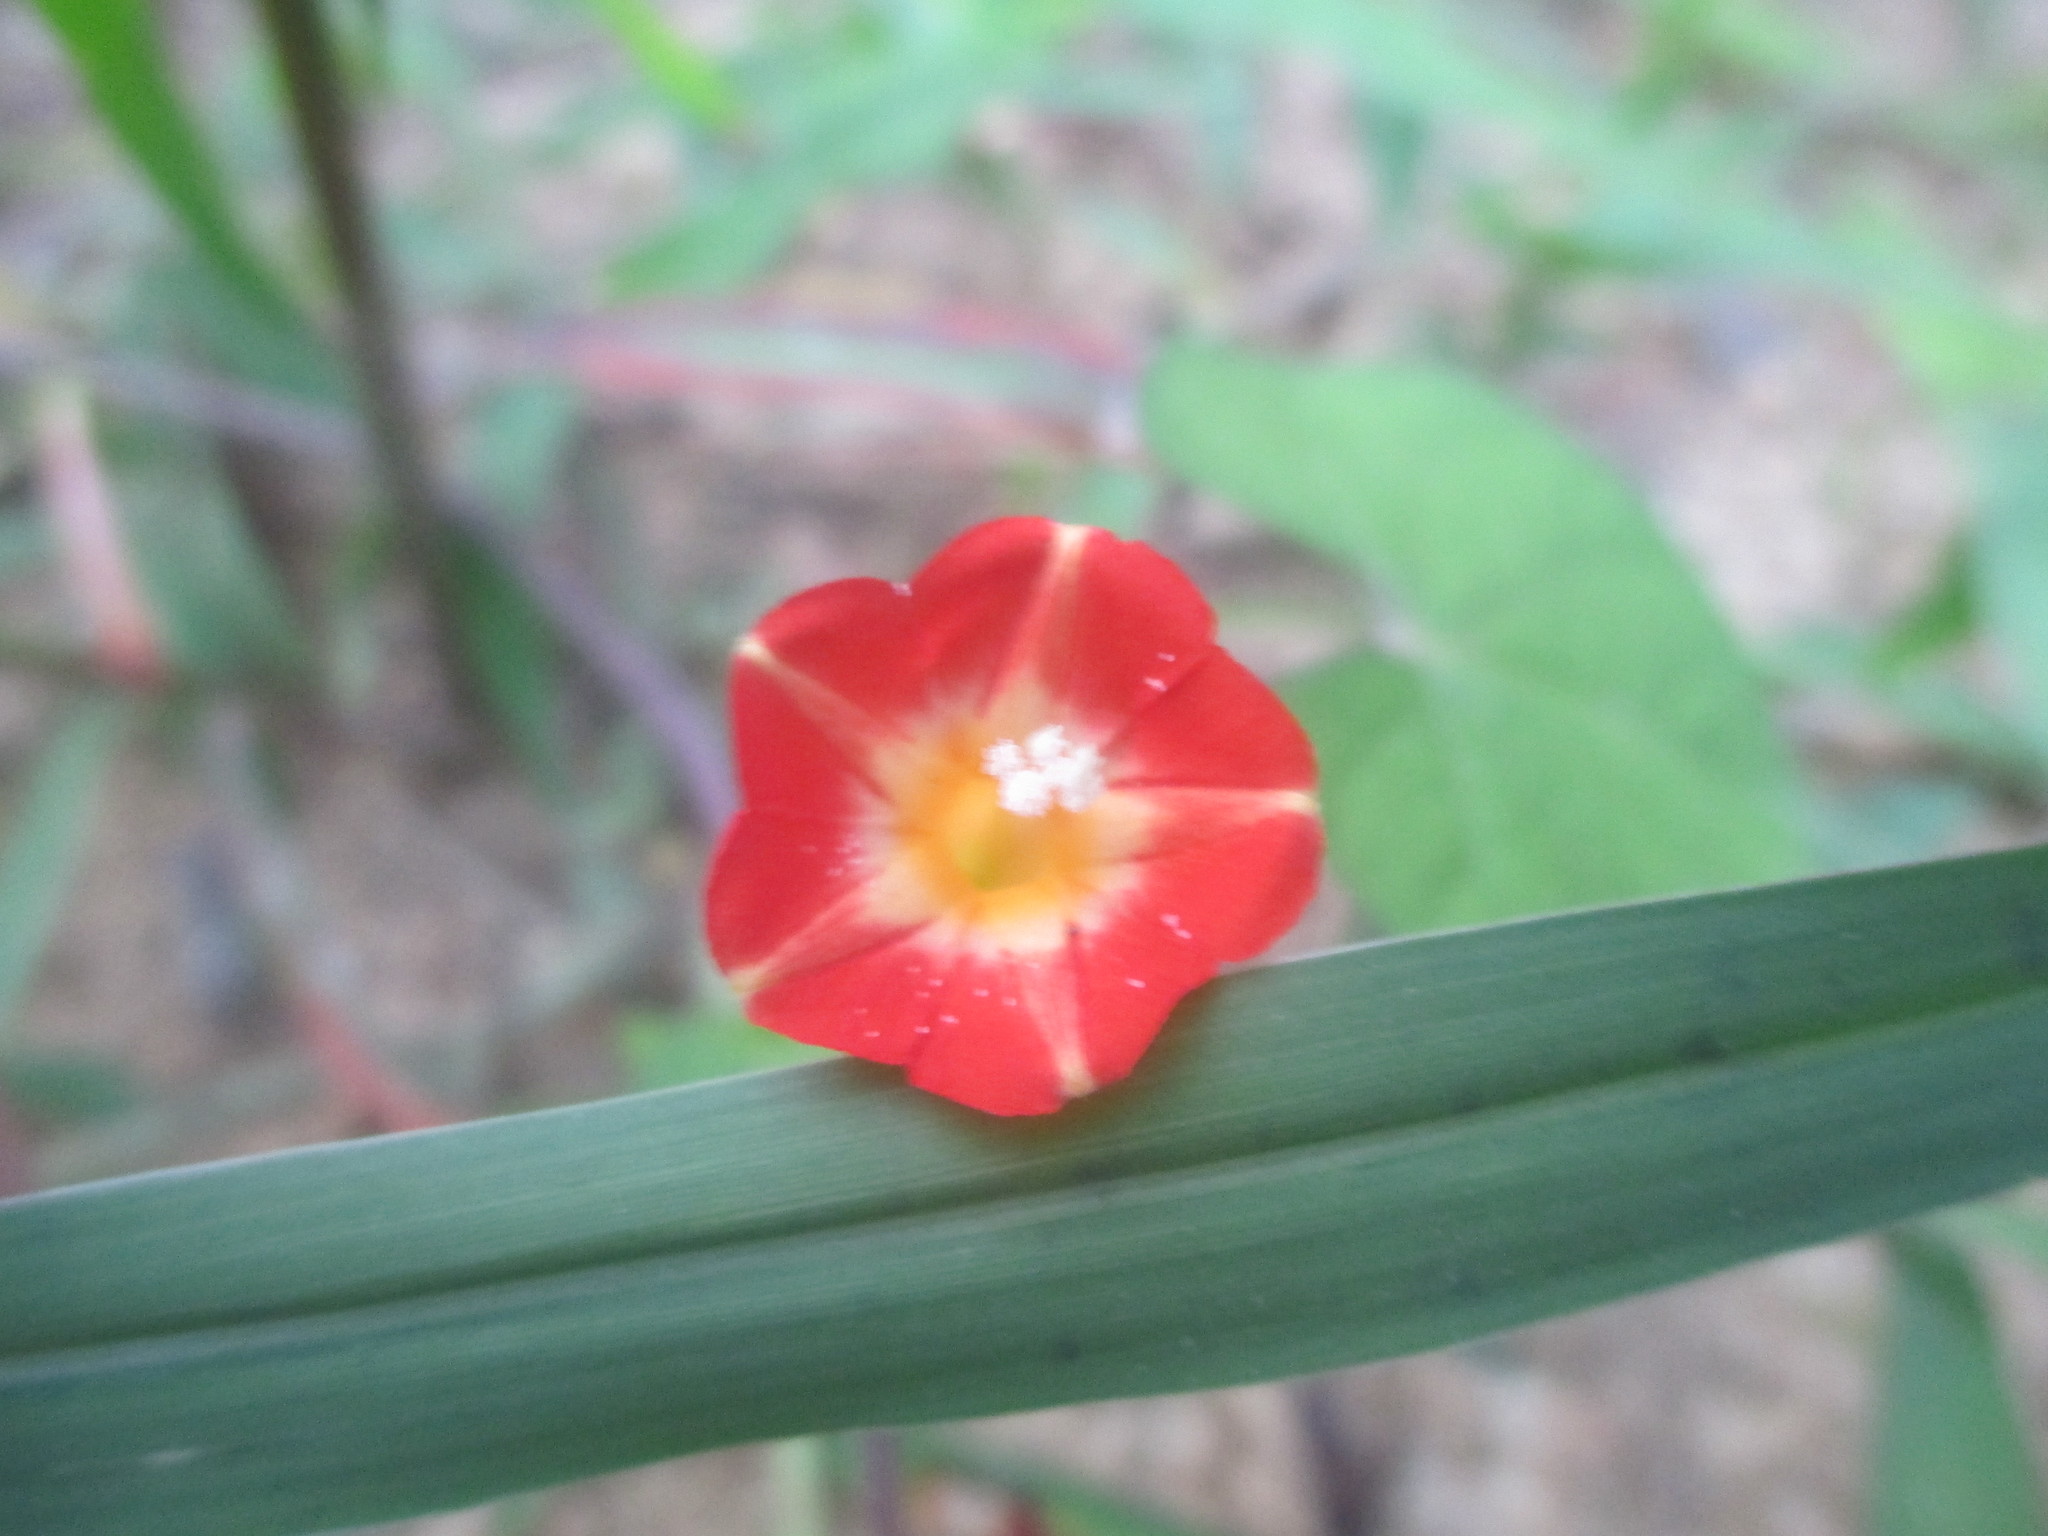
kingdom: Plantae
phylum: Tracheophyta
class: Magnoliopsida
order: Solanales
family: Convolvulaceae
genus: Ipomoea
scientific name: Ipomoea coccinea
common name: Red morning-glory
